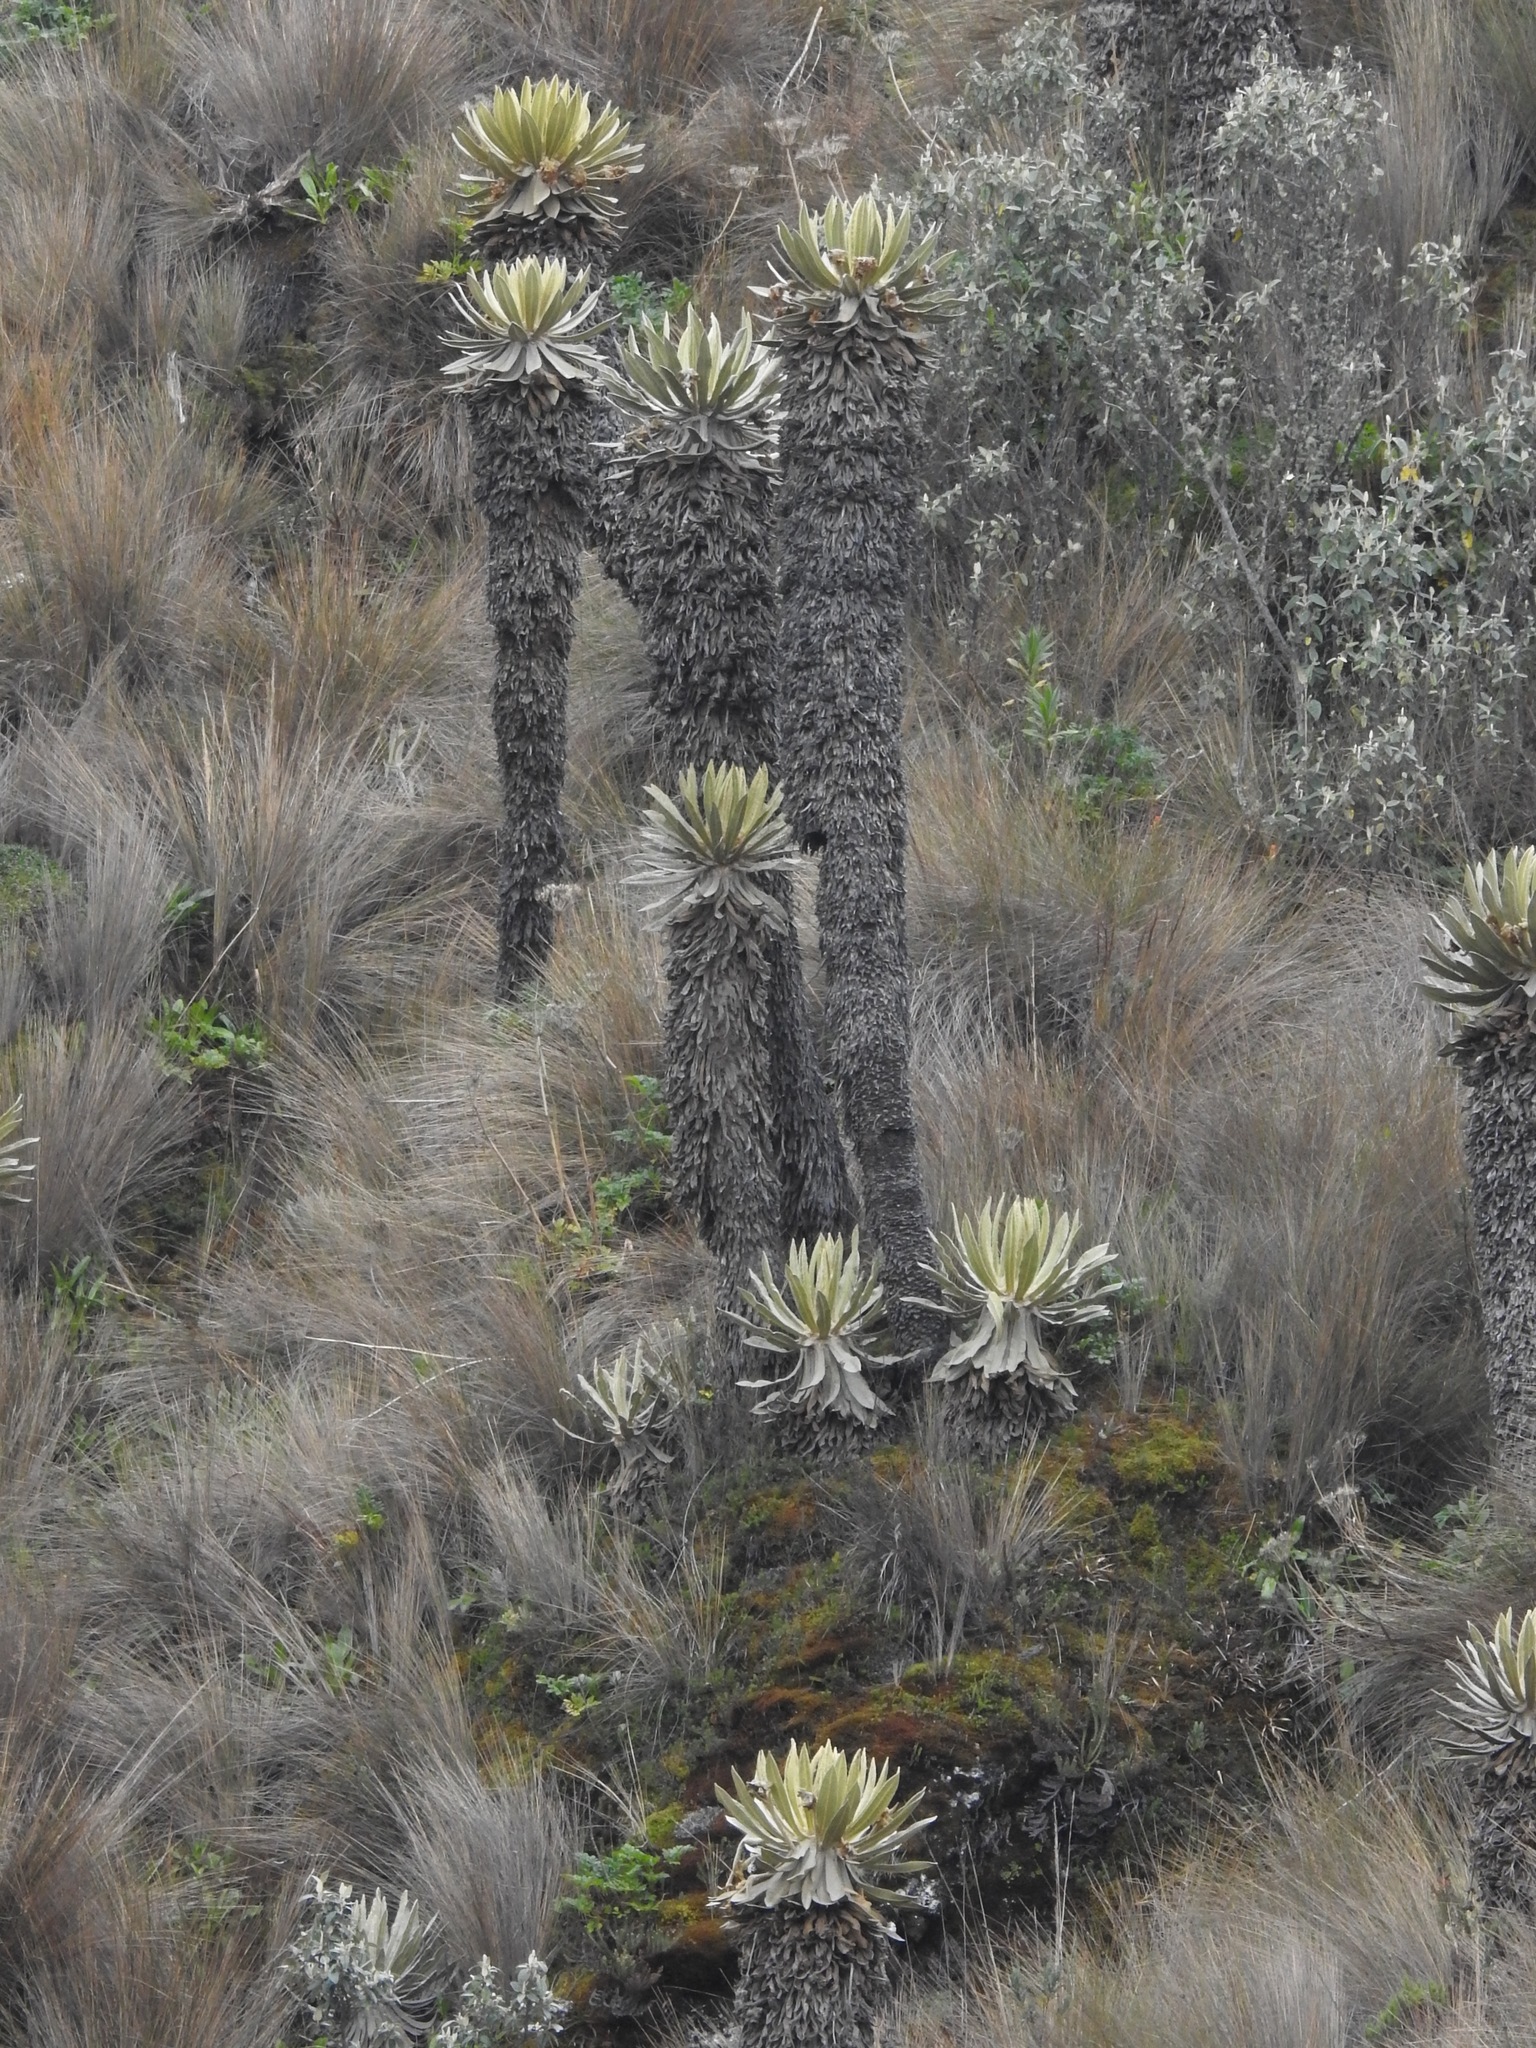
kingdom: Plantae
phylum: Tracheophyta
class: Magnoliopsida
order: Asterales
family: Asteraceae
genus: Espeletia
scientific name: Espeletia hartwegiana
